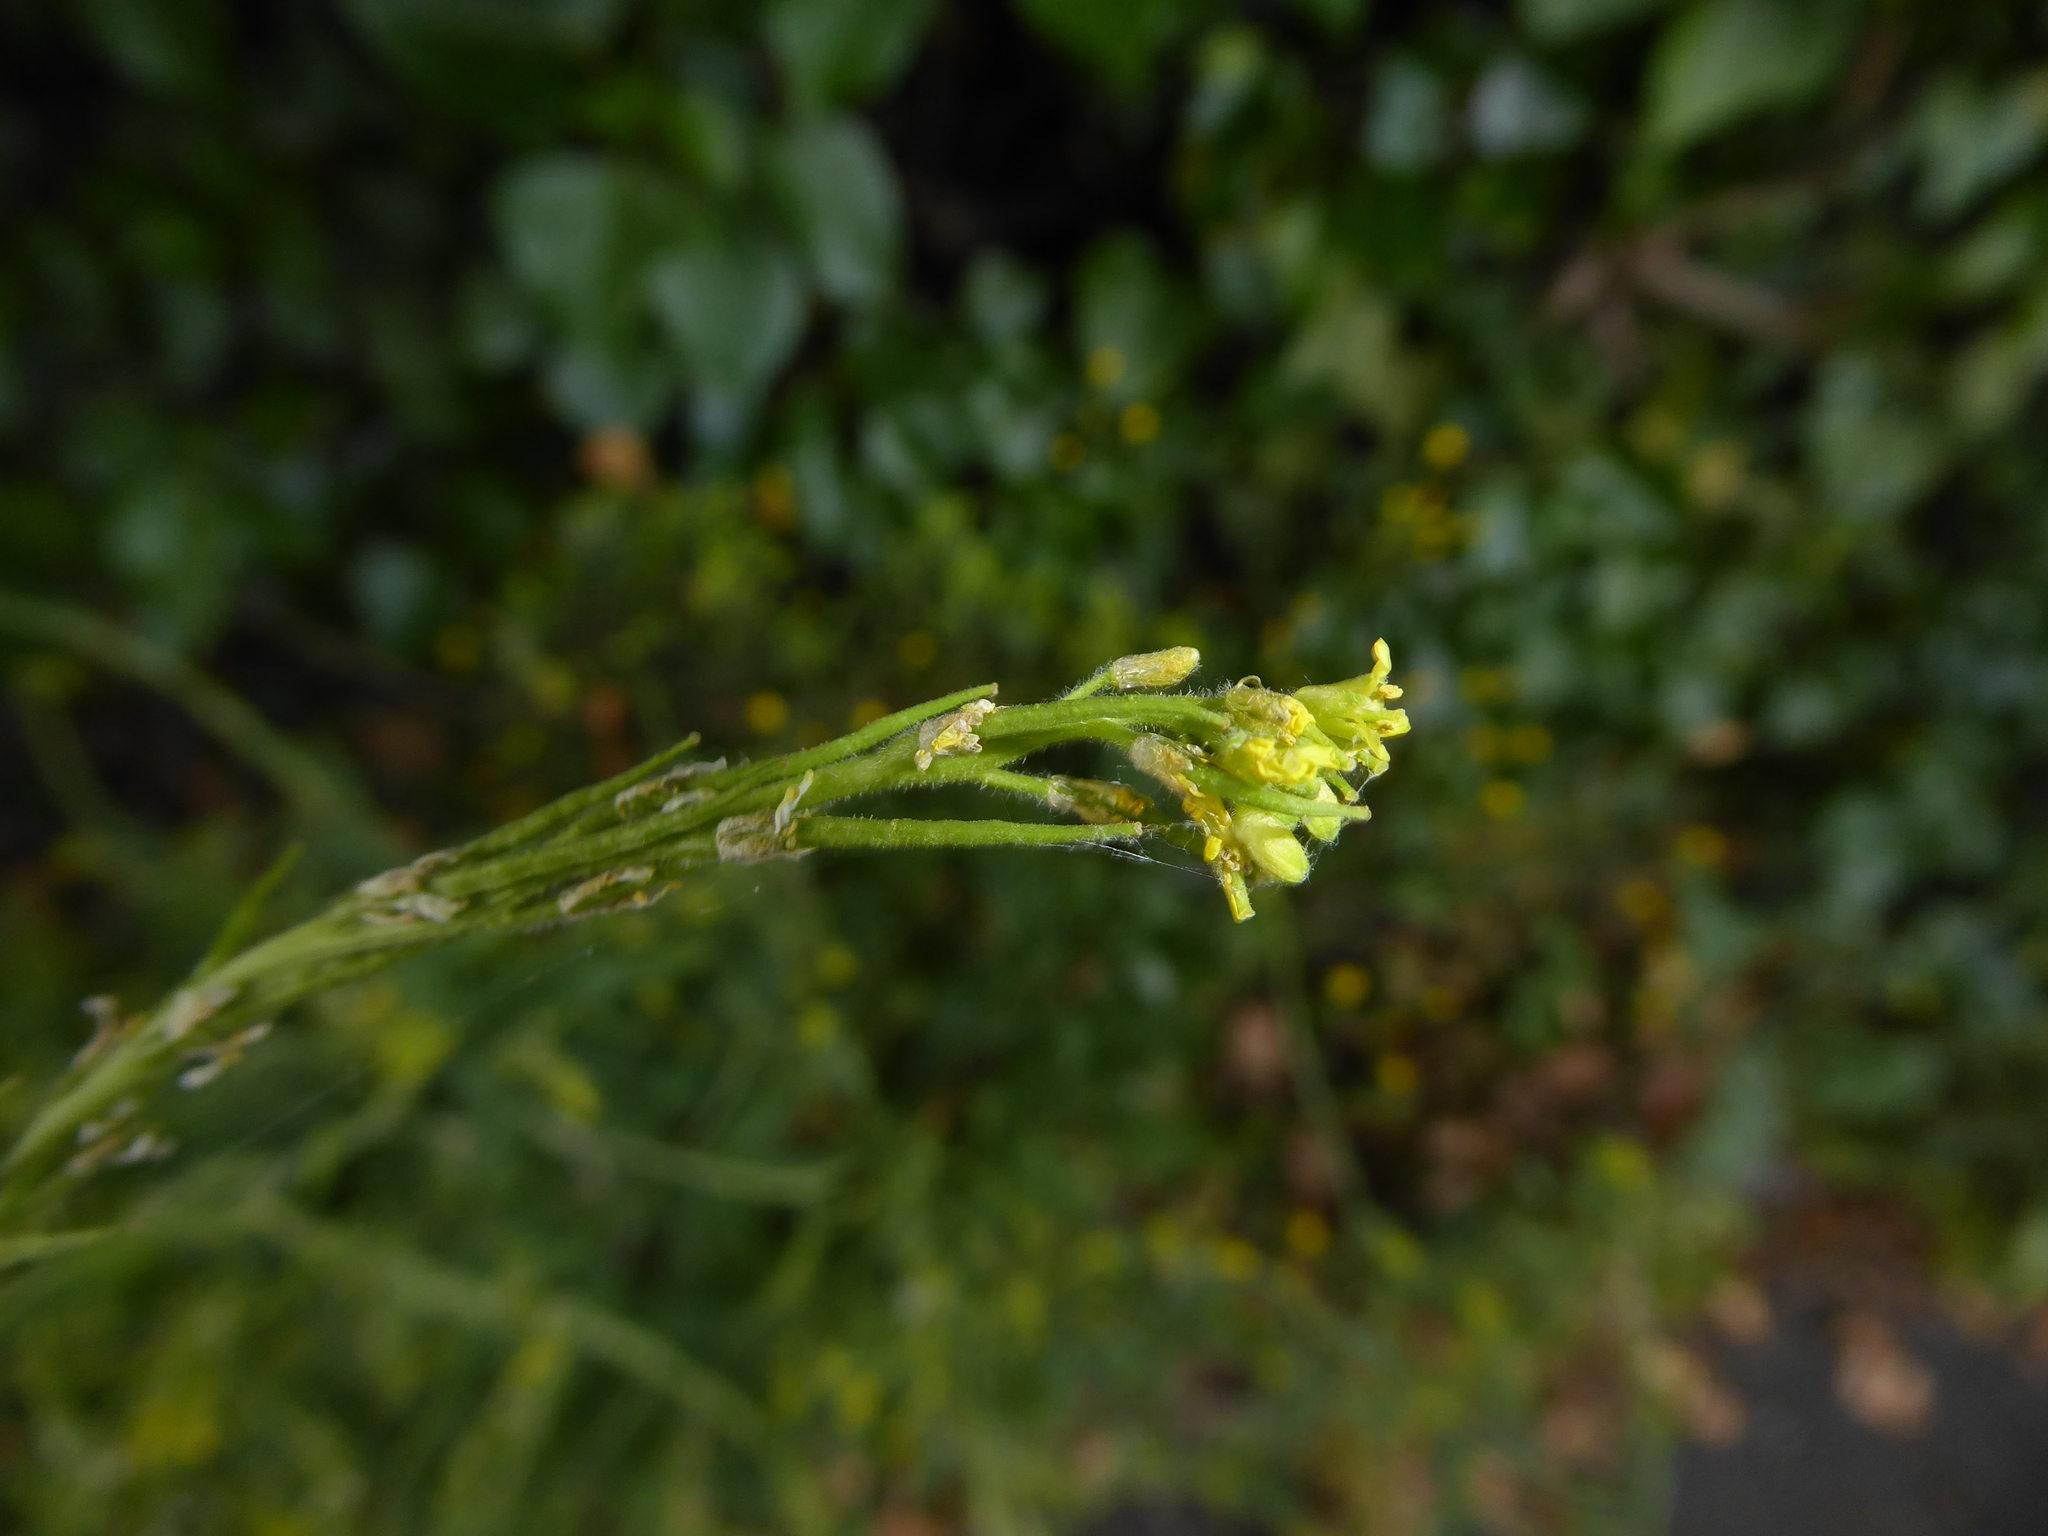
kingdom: Plantae
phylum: Tracheophyta
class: Magnoliopsida
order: Brassicales
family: Brassicaceae
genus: Sisymbrium
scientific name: Sisymbrium officinale
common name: Hedge mustard
